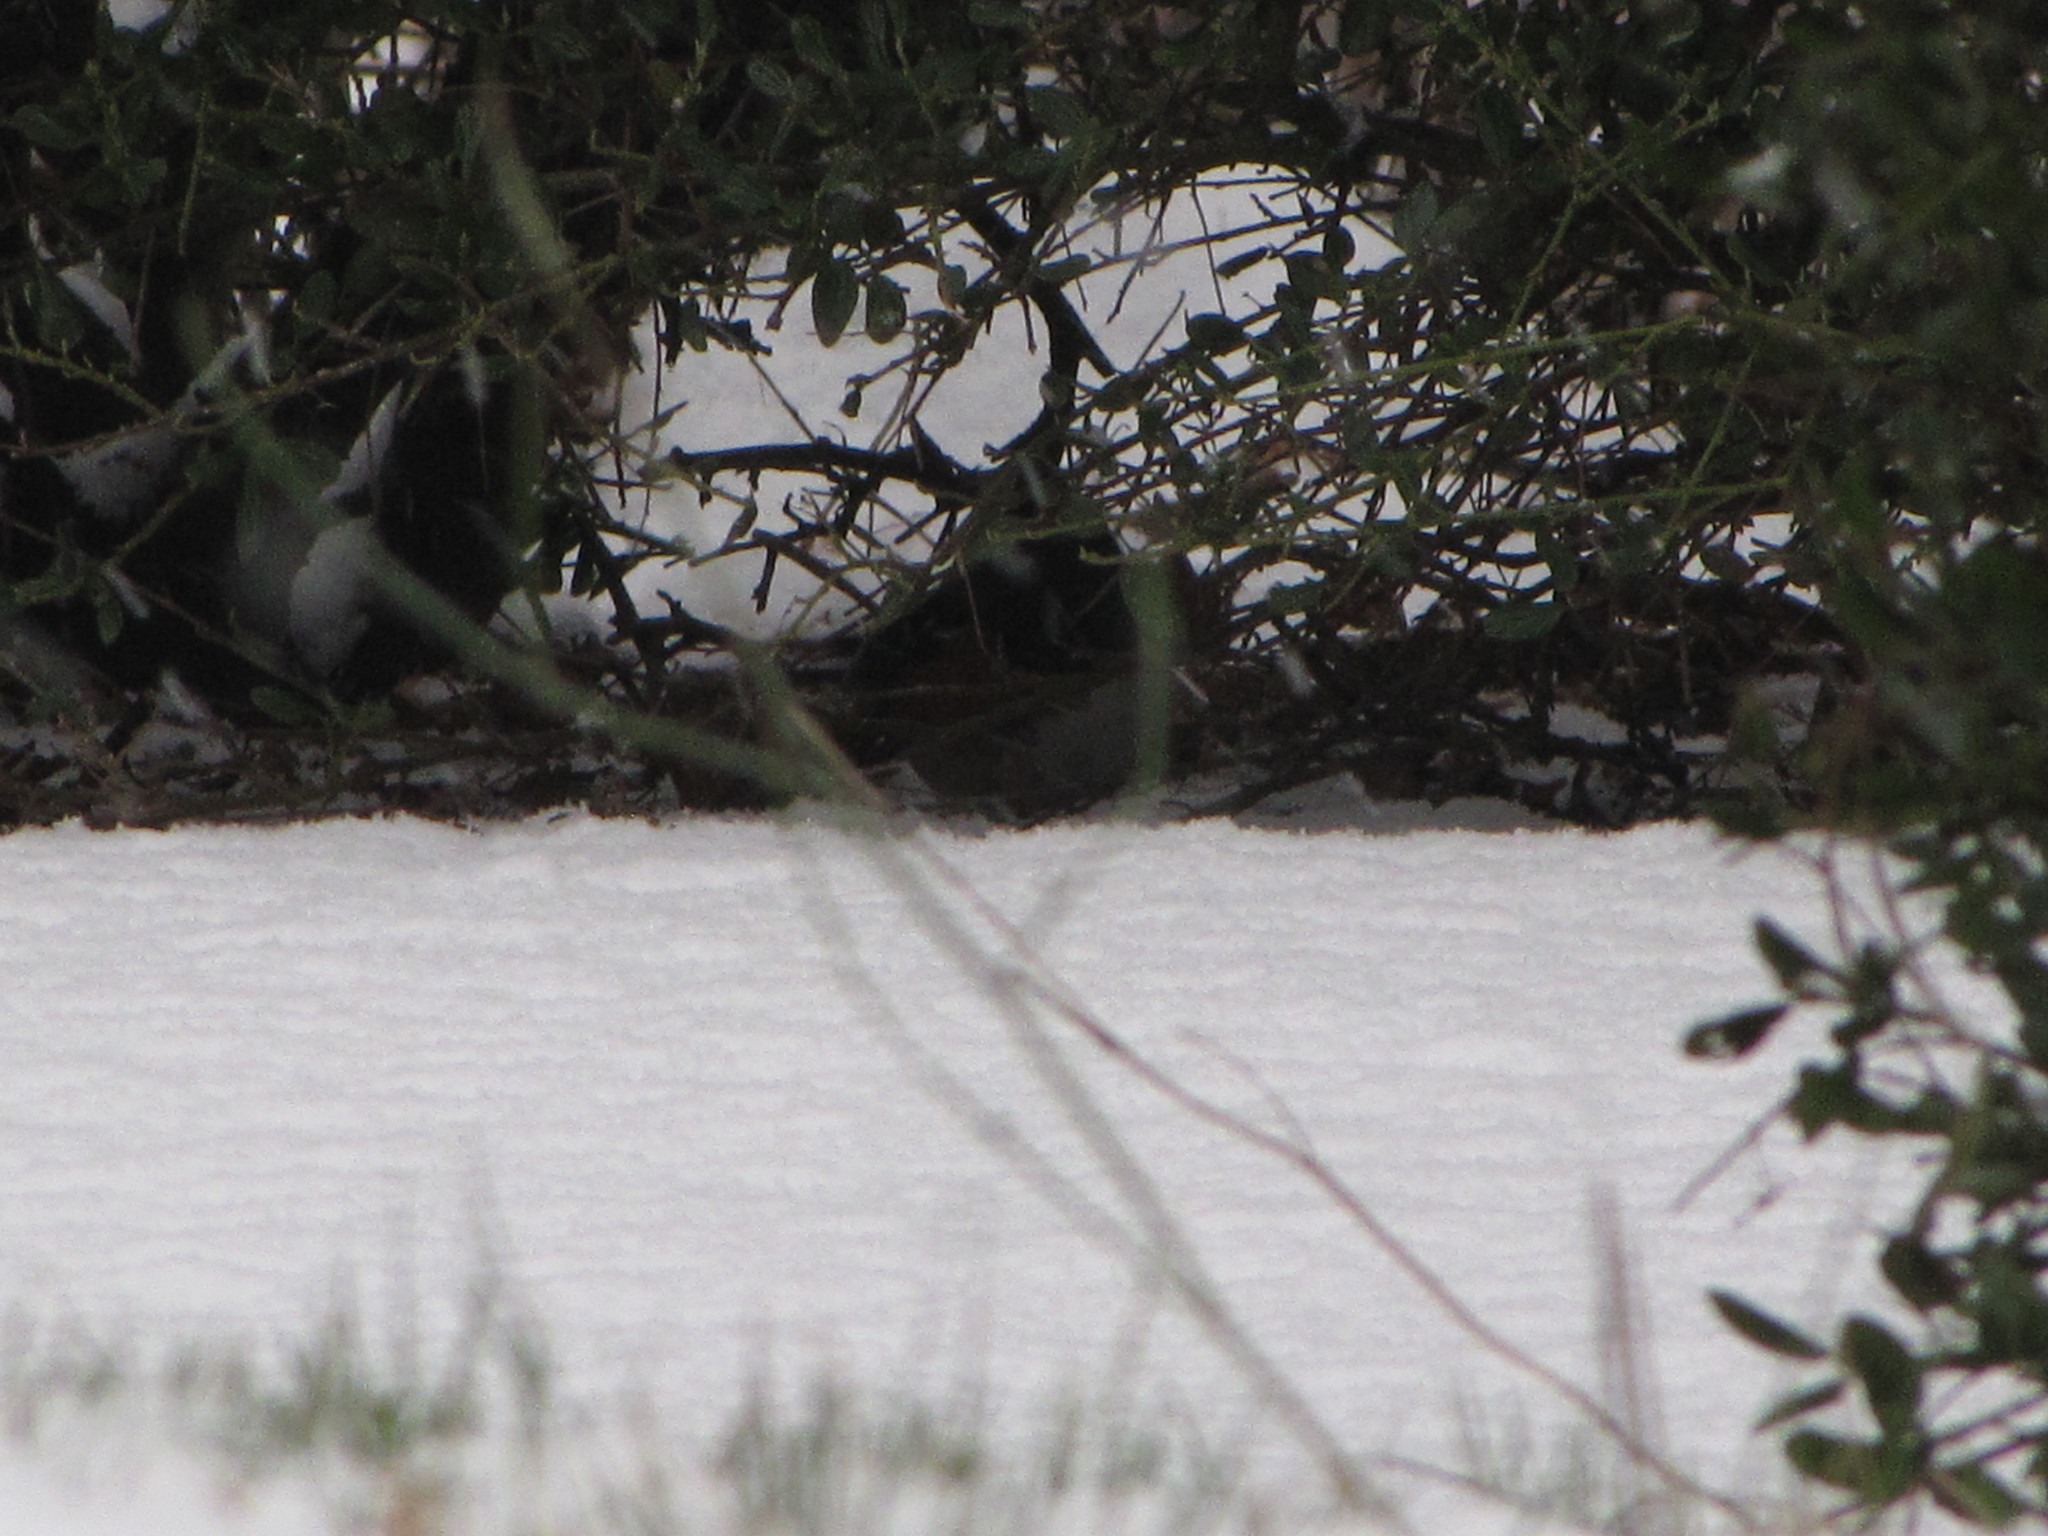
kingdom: Animalia
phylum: Chordata
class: Aves
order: Passeriformes
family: Passerellidae
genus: Pipilo
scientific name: Pipilo maculatus
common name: Spotted towhee
